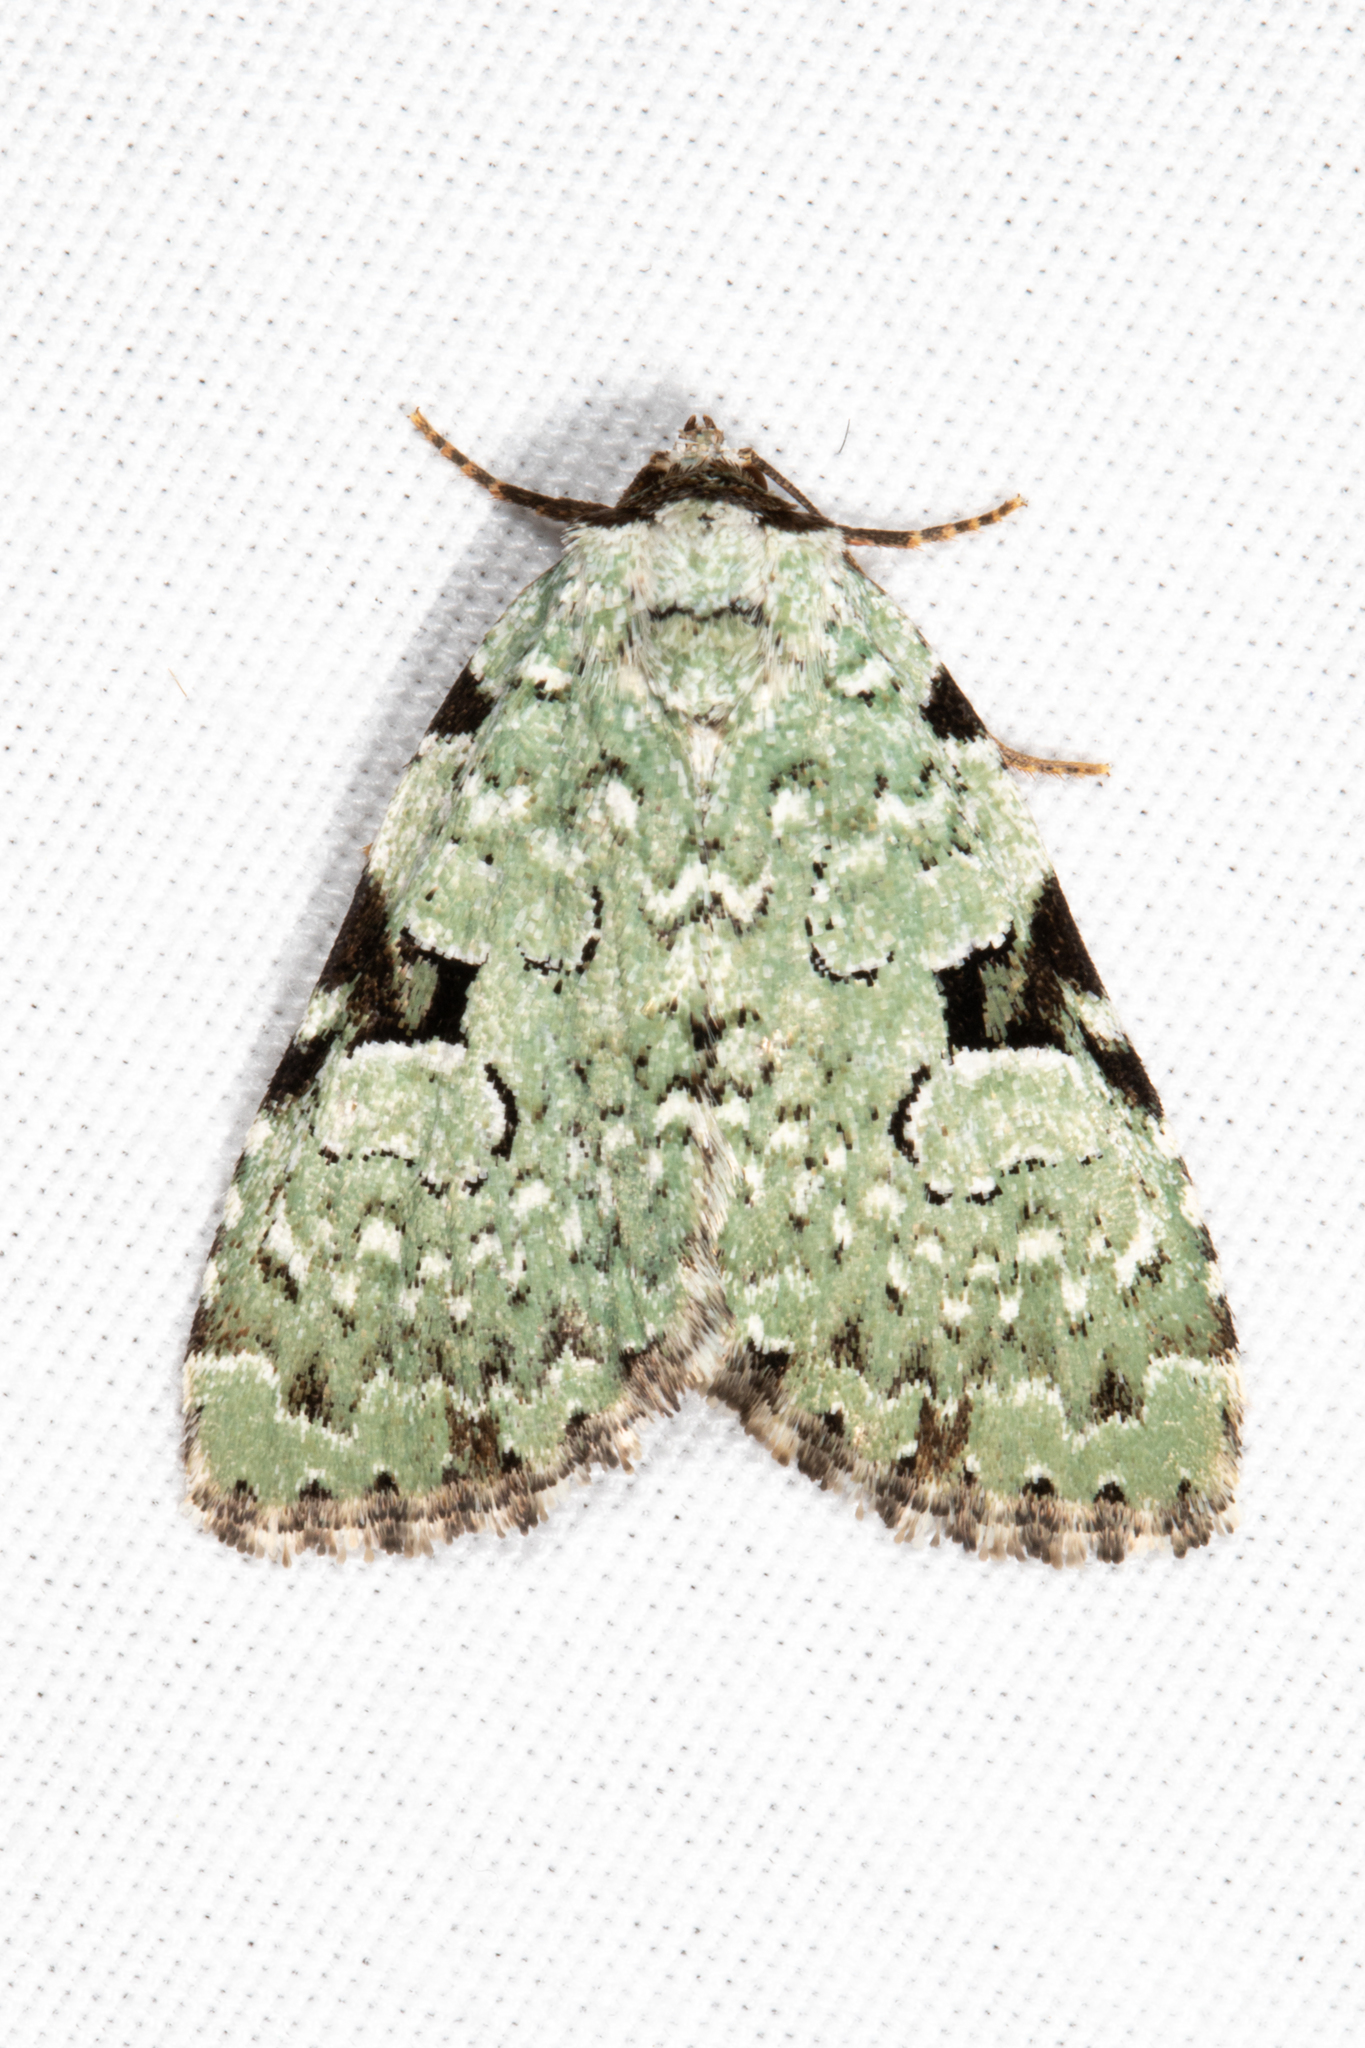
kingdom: Animalia
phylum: Arthropoda
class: Insecta
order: Lepidoptera
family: Noctuidae
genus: Leuconycta
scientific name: Leuconycta diphteroides
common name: Green leuconycta moth
